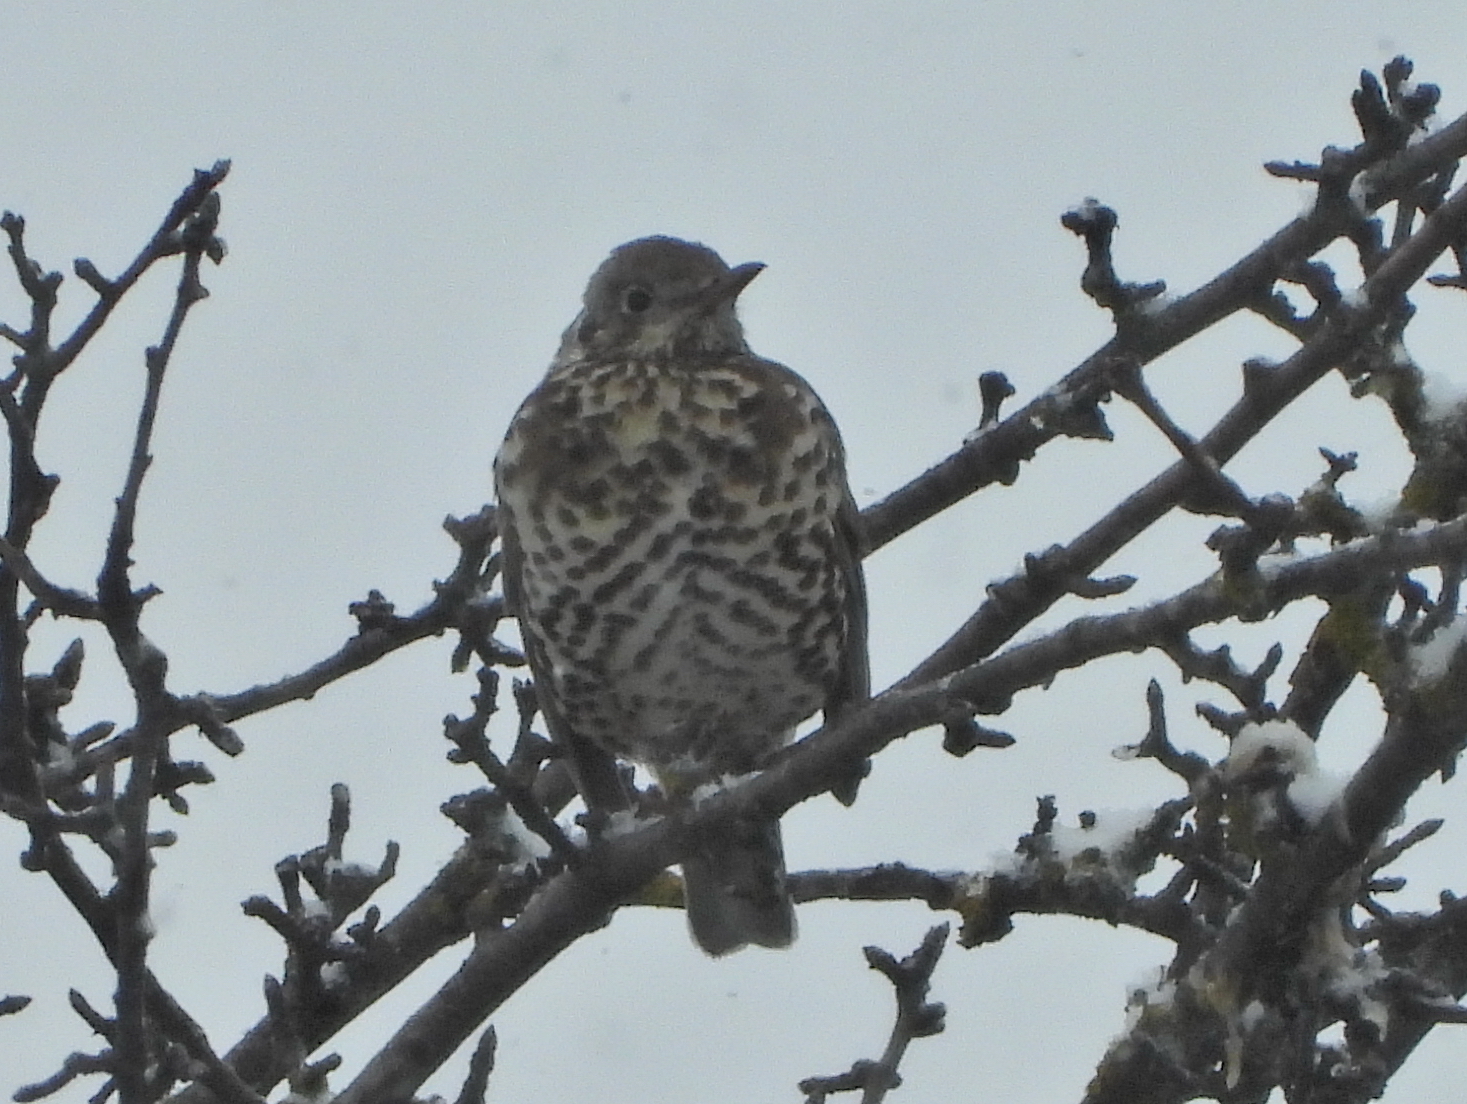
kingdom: Animalia
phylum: Chordata
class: Aves
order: Passeriformes
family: Turdidae
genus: Turdus
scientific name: Turdus viscivorus
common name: Mistle thrush
